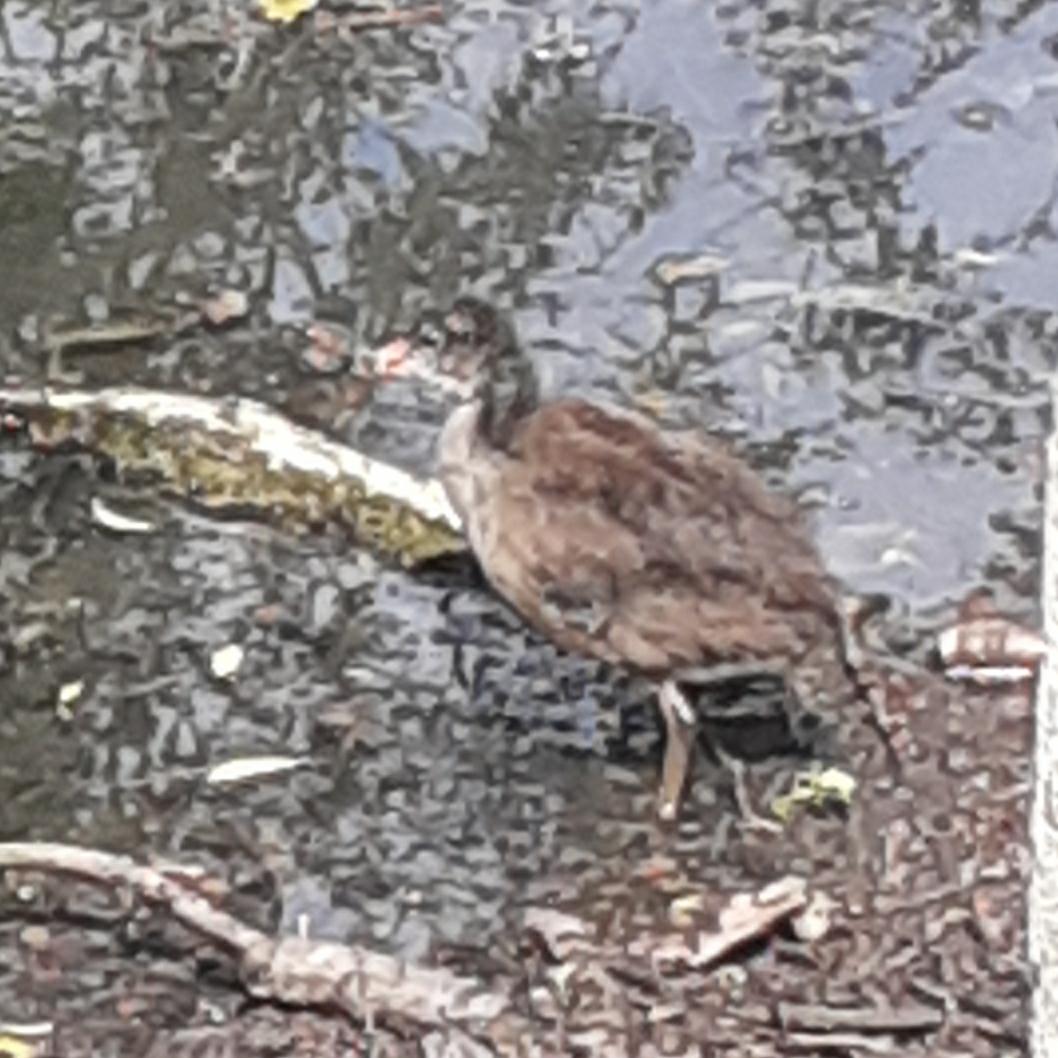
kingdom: Animalia
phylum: Chordata
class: Aves
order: Gruiformes
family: Rallidae
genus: Gallinula
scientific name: Gallinula chloropus
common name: Common moorhen
